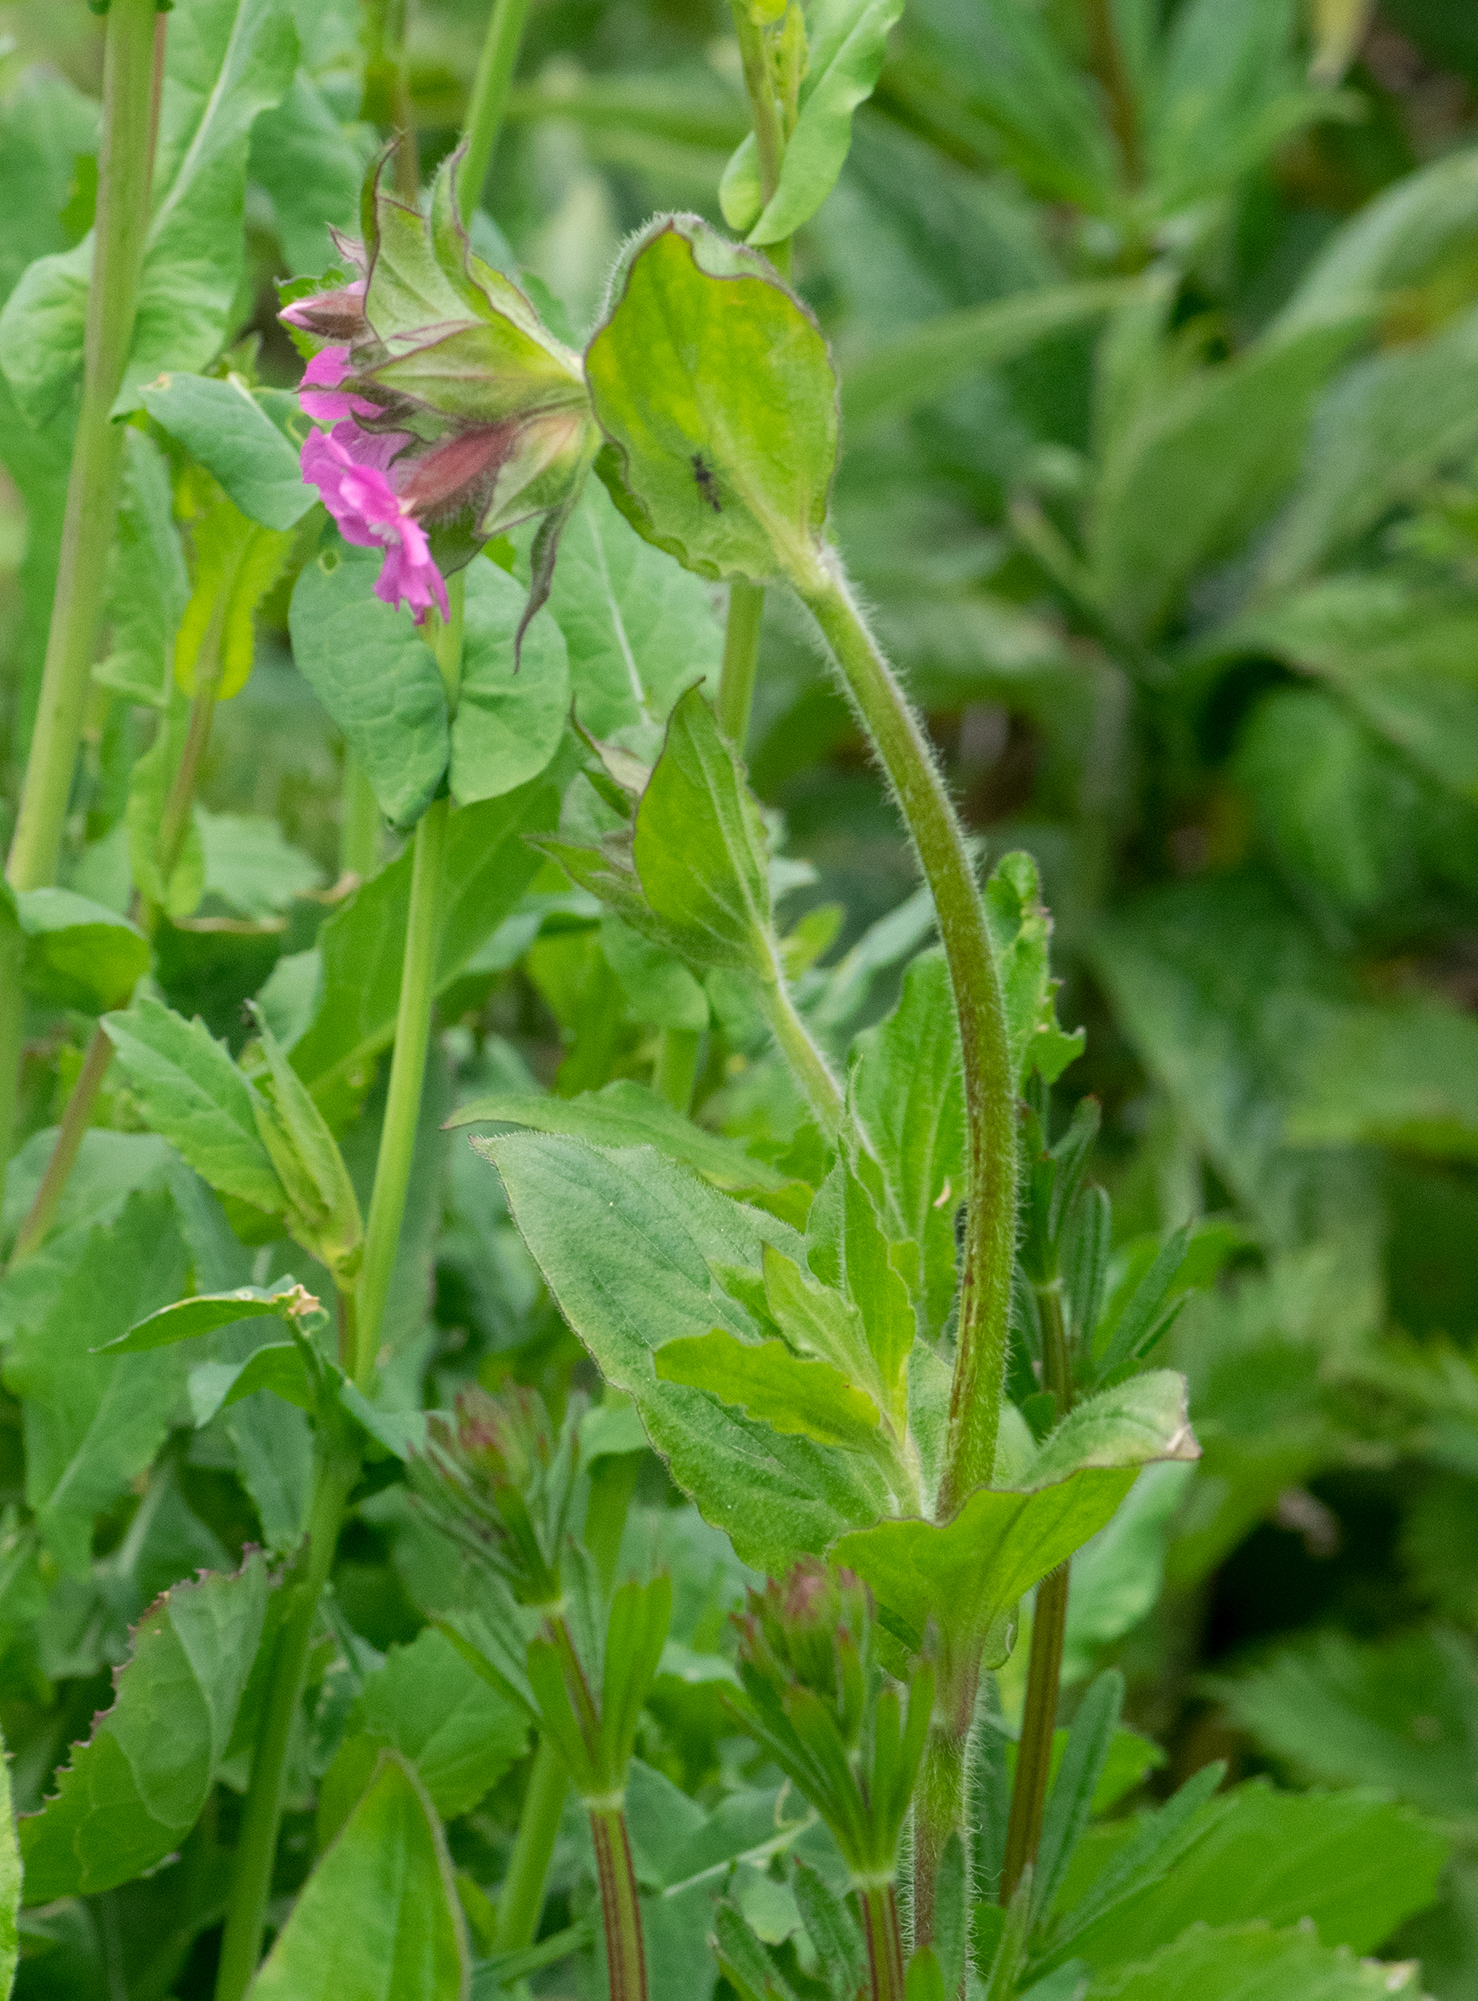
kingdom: Plantae
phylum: Tracheophyta
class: Magnoliopsida
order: Caryophyllales
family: Caryophyllaceae
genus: Silene
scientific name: Silene dioica
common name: Red campion
